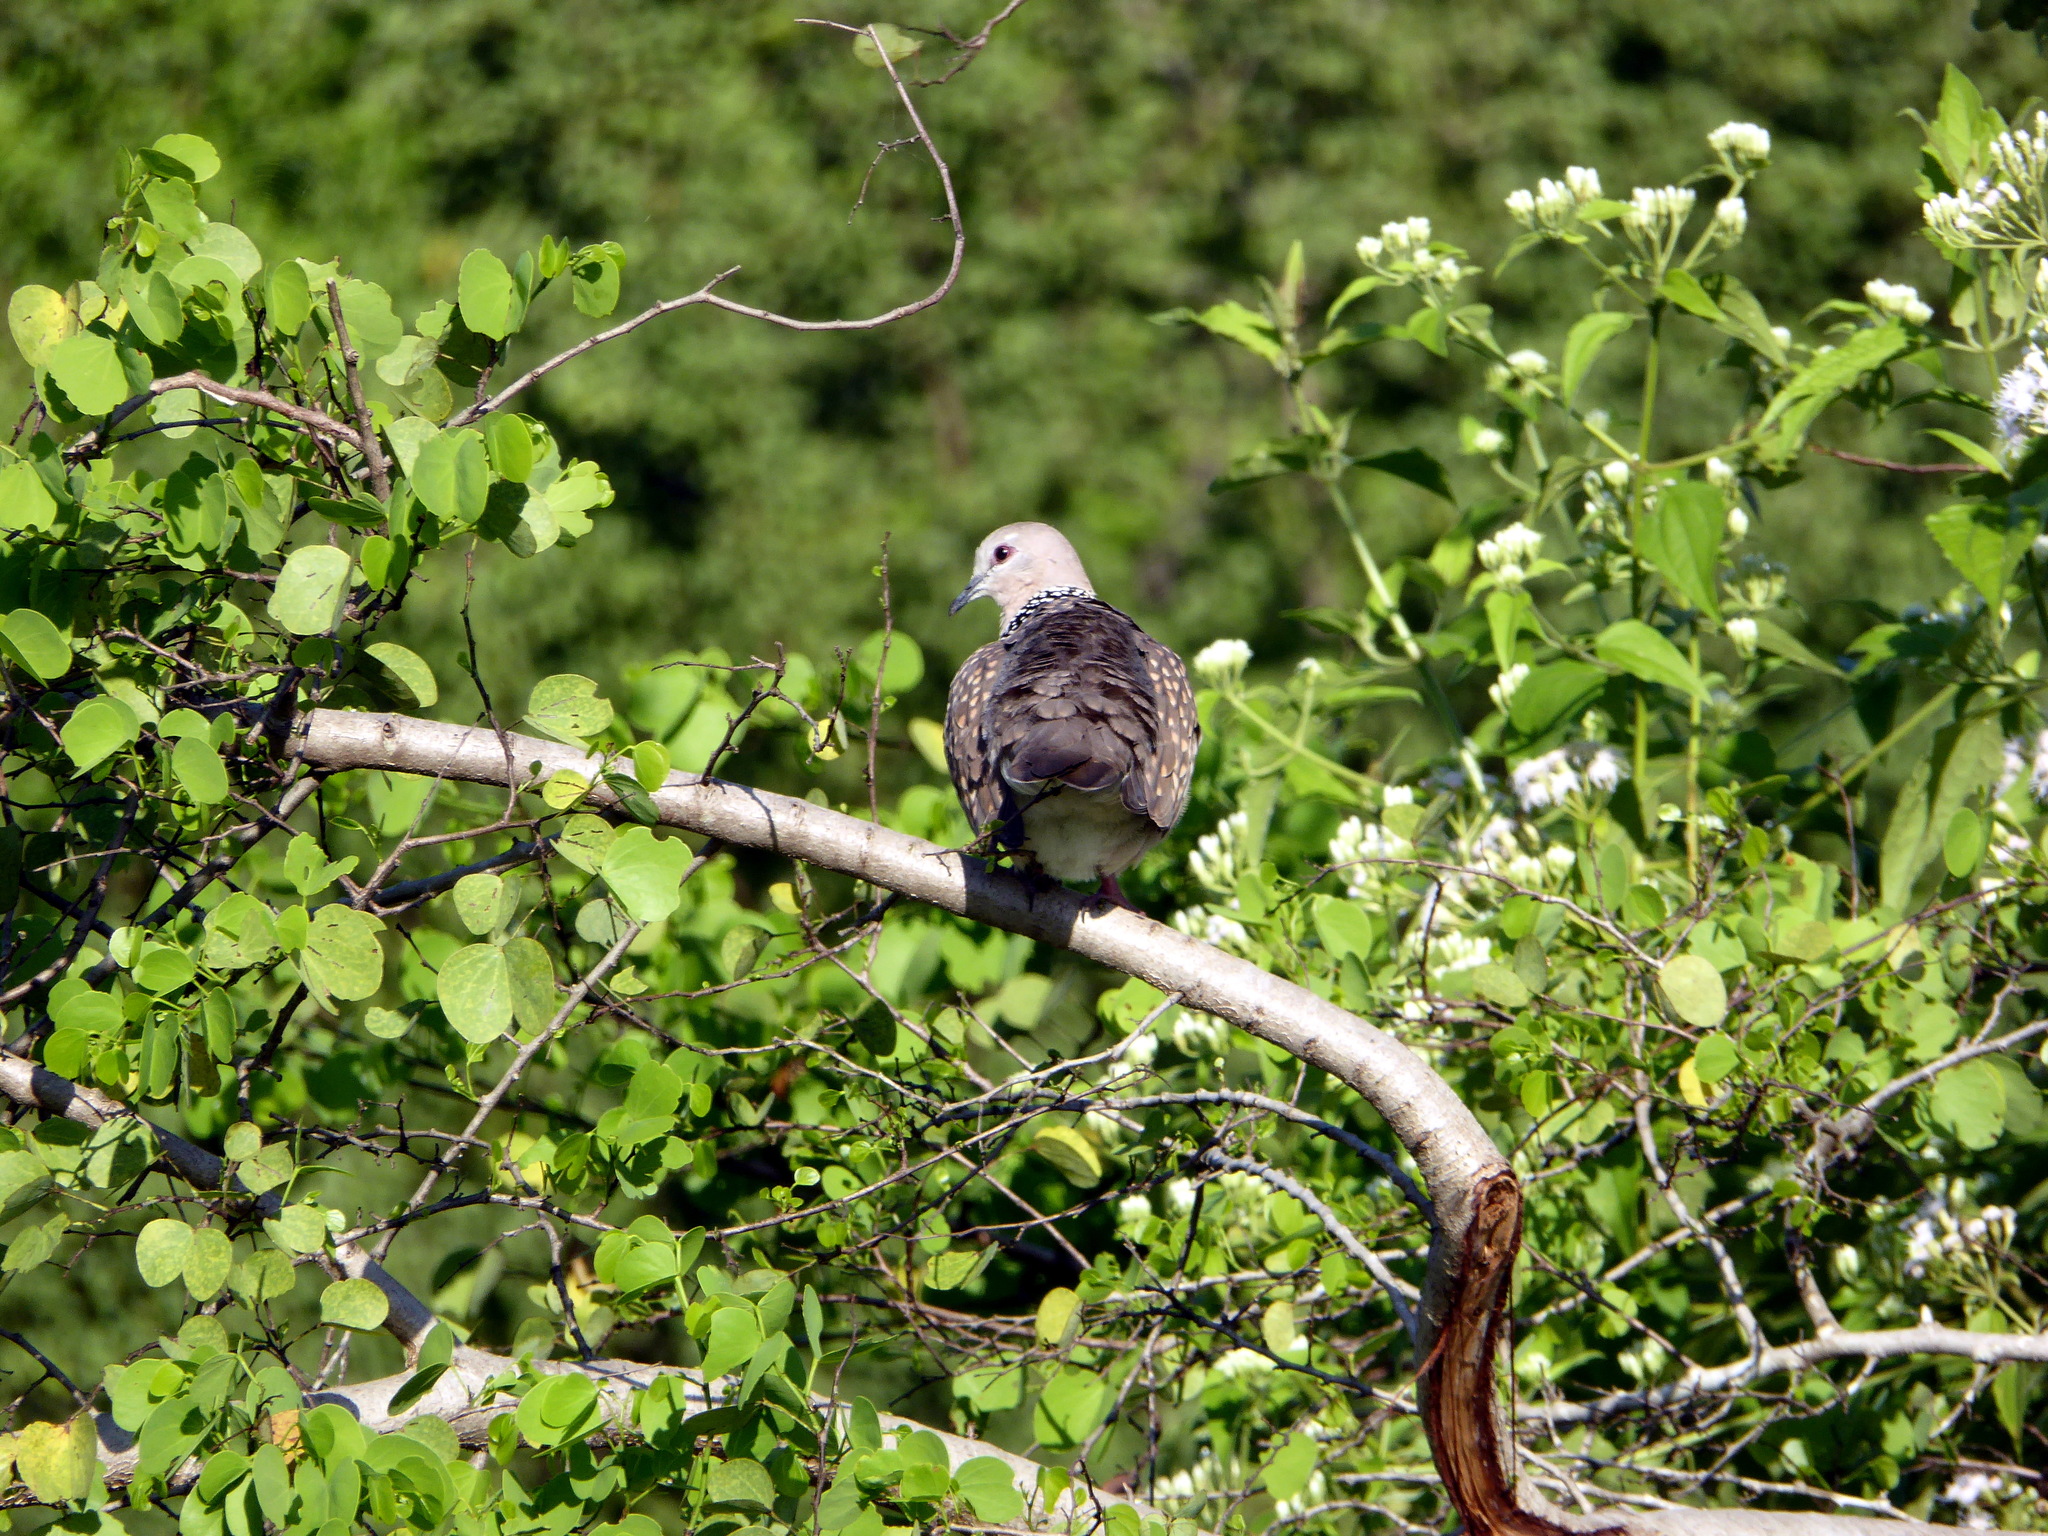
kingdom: Animalia
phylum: Chordata
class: Aves
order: Columbiformes
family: Columbidae
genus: Spilopelia
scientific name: Spilopelia chinensis
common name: Spotted dove
